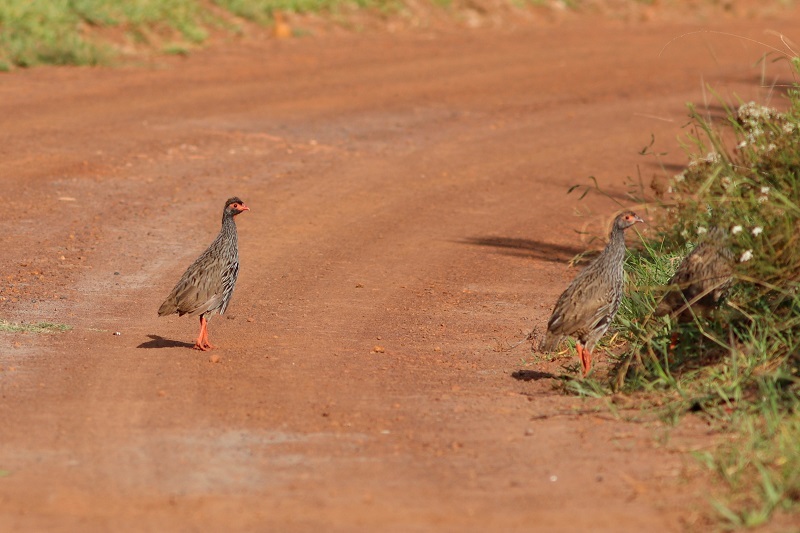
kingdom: Animalia
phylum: Chordata
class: Aves
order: Galliformes
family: Phasianidae
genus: Pternistis
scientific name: Pternistis afer
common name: Red-necked spurfowl
